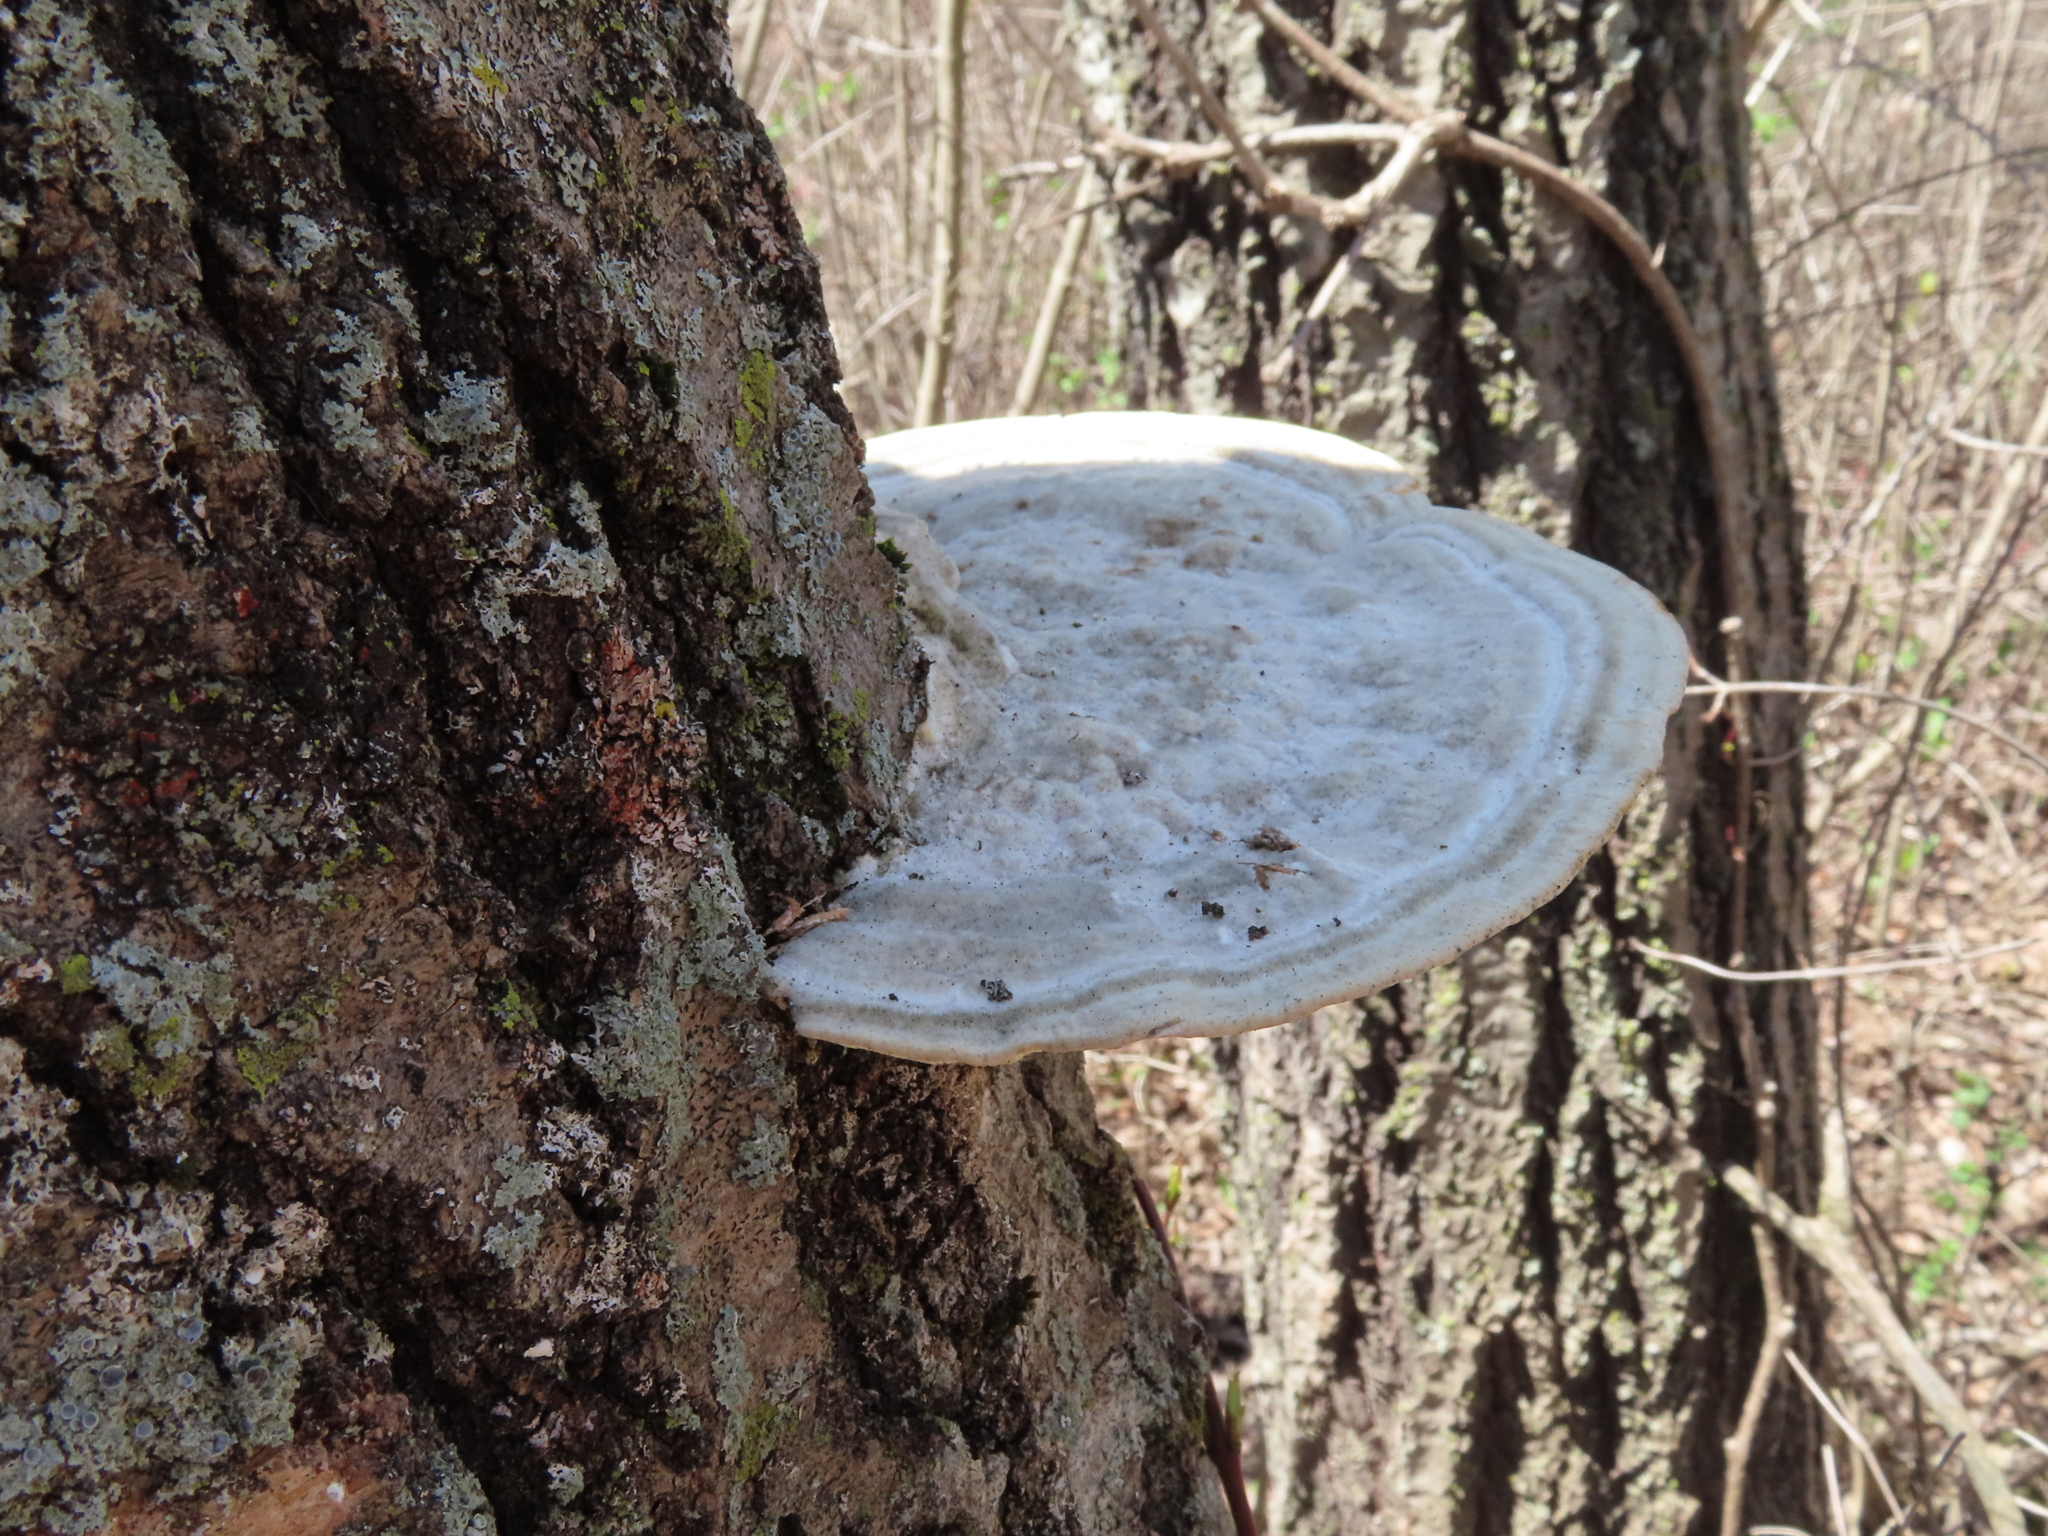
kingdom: Fungi
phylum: Basidiomycota
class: Agaricomycetes
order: Polyporales
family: Polyporaceae
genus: Trametes
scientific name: Trametes gibbosa
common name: Lumpy bracket
